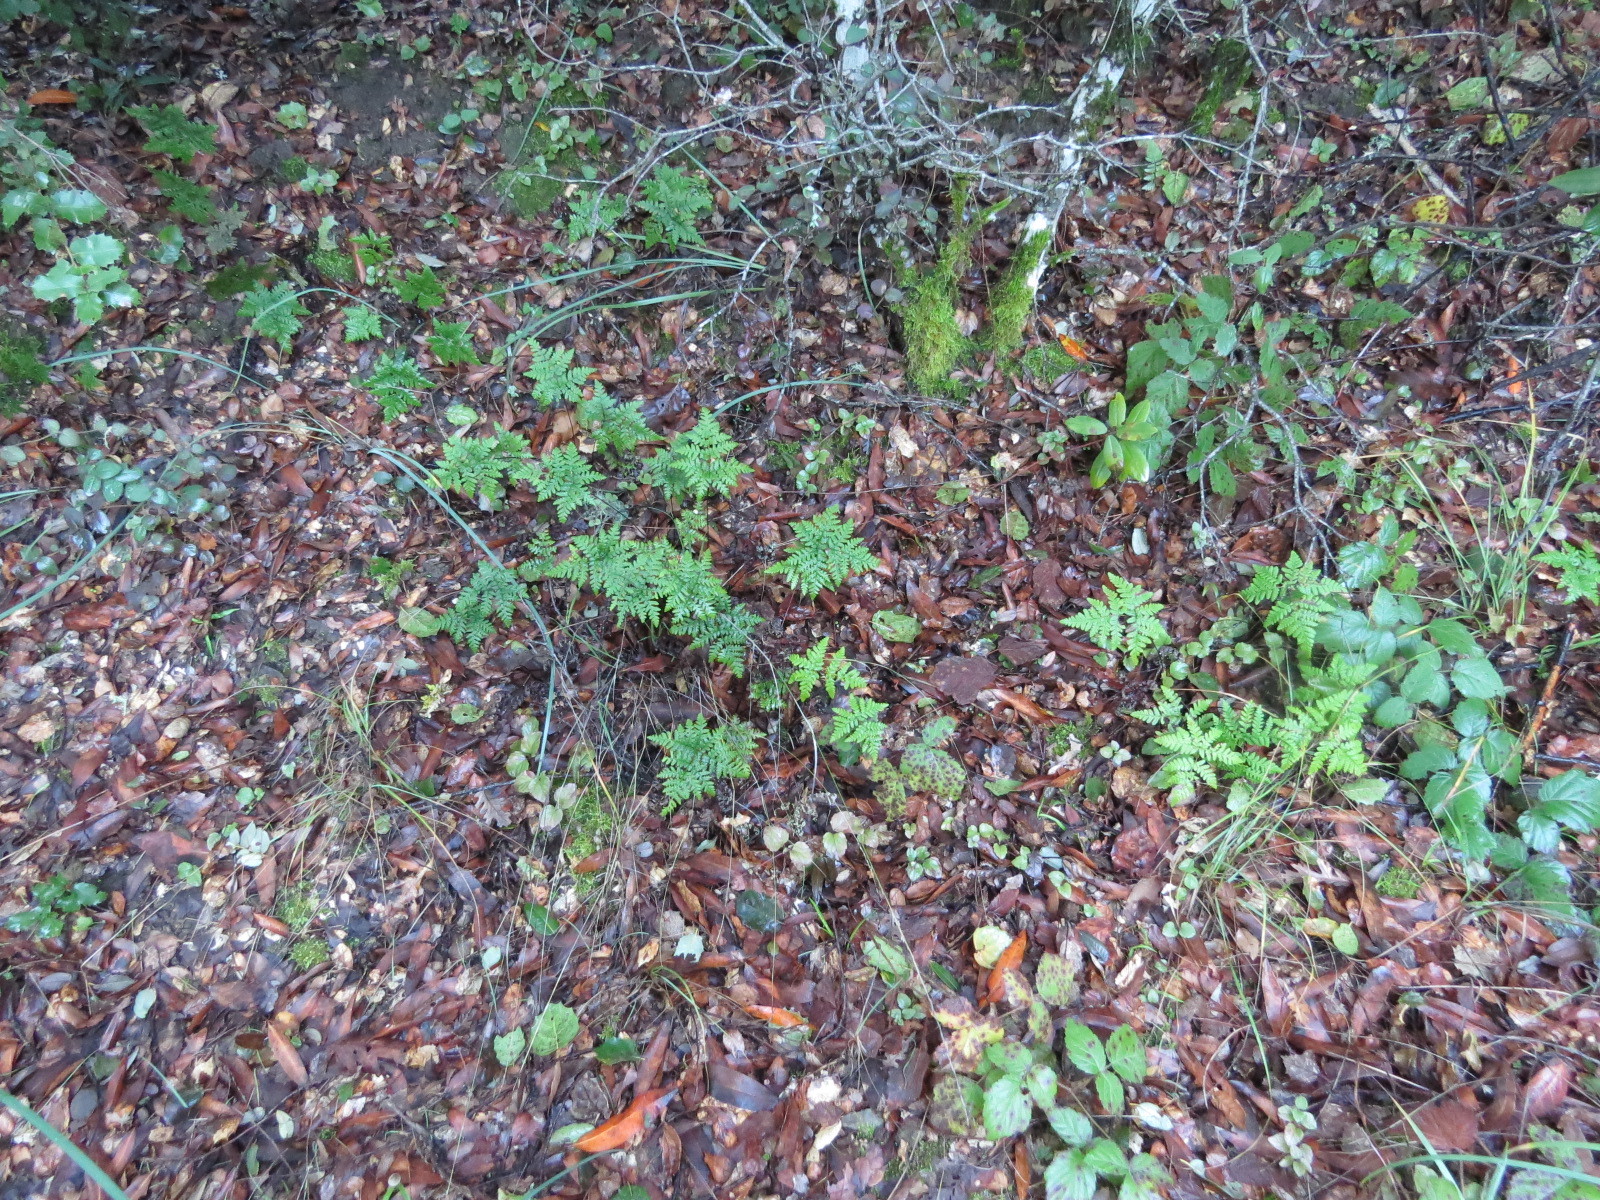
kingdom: Plantae
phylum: Tracheophyta
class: Polypodiopsida
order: Polypodiales
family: Pteridaceae
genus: Pentagramma
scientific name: Pentagramma triangularis
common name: Gold fern
